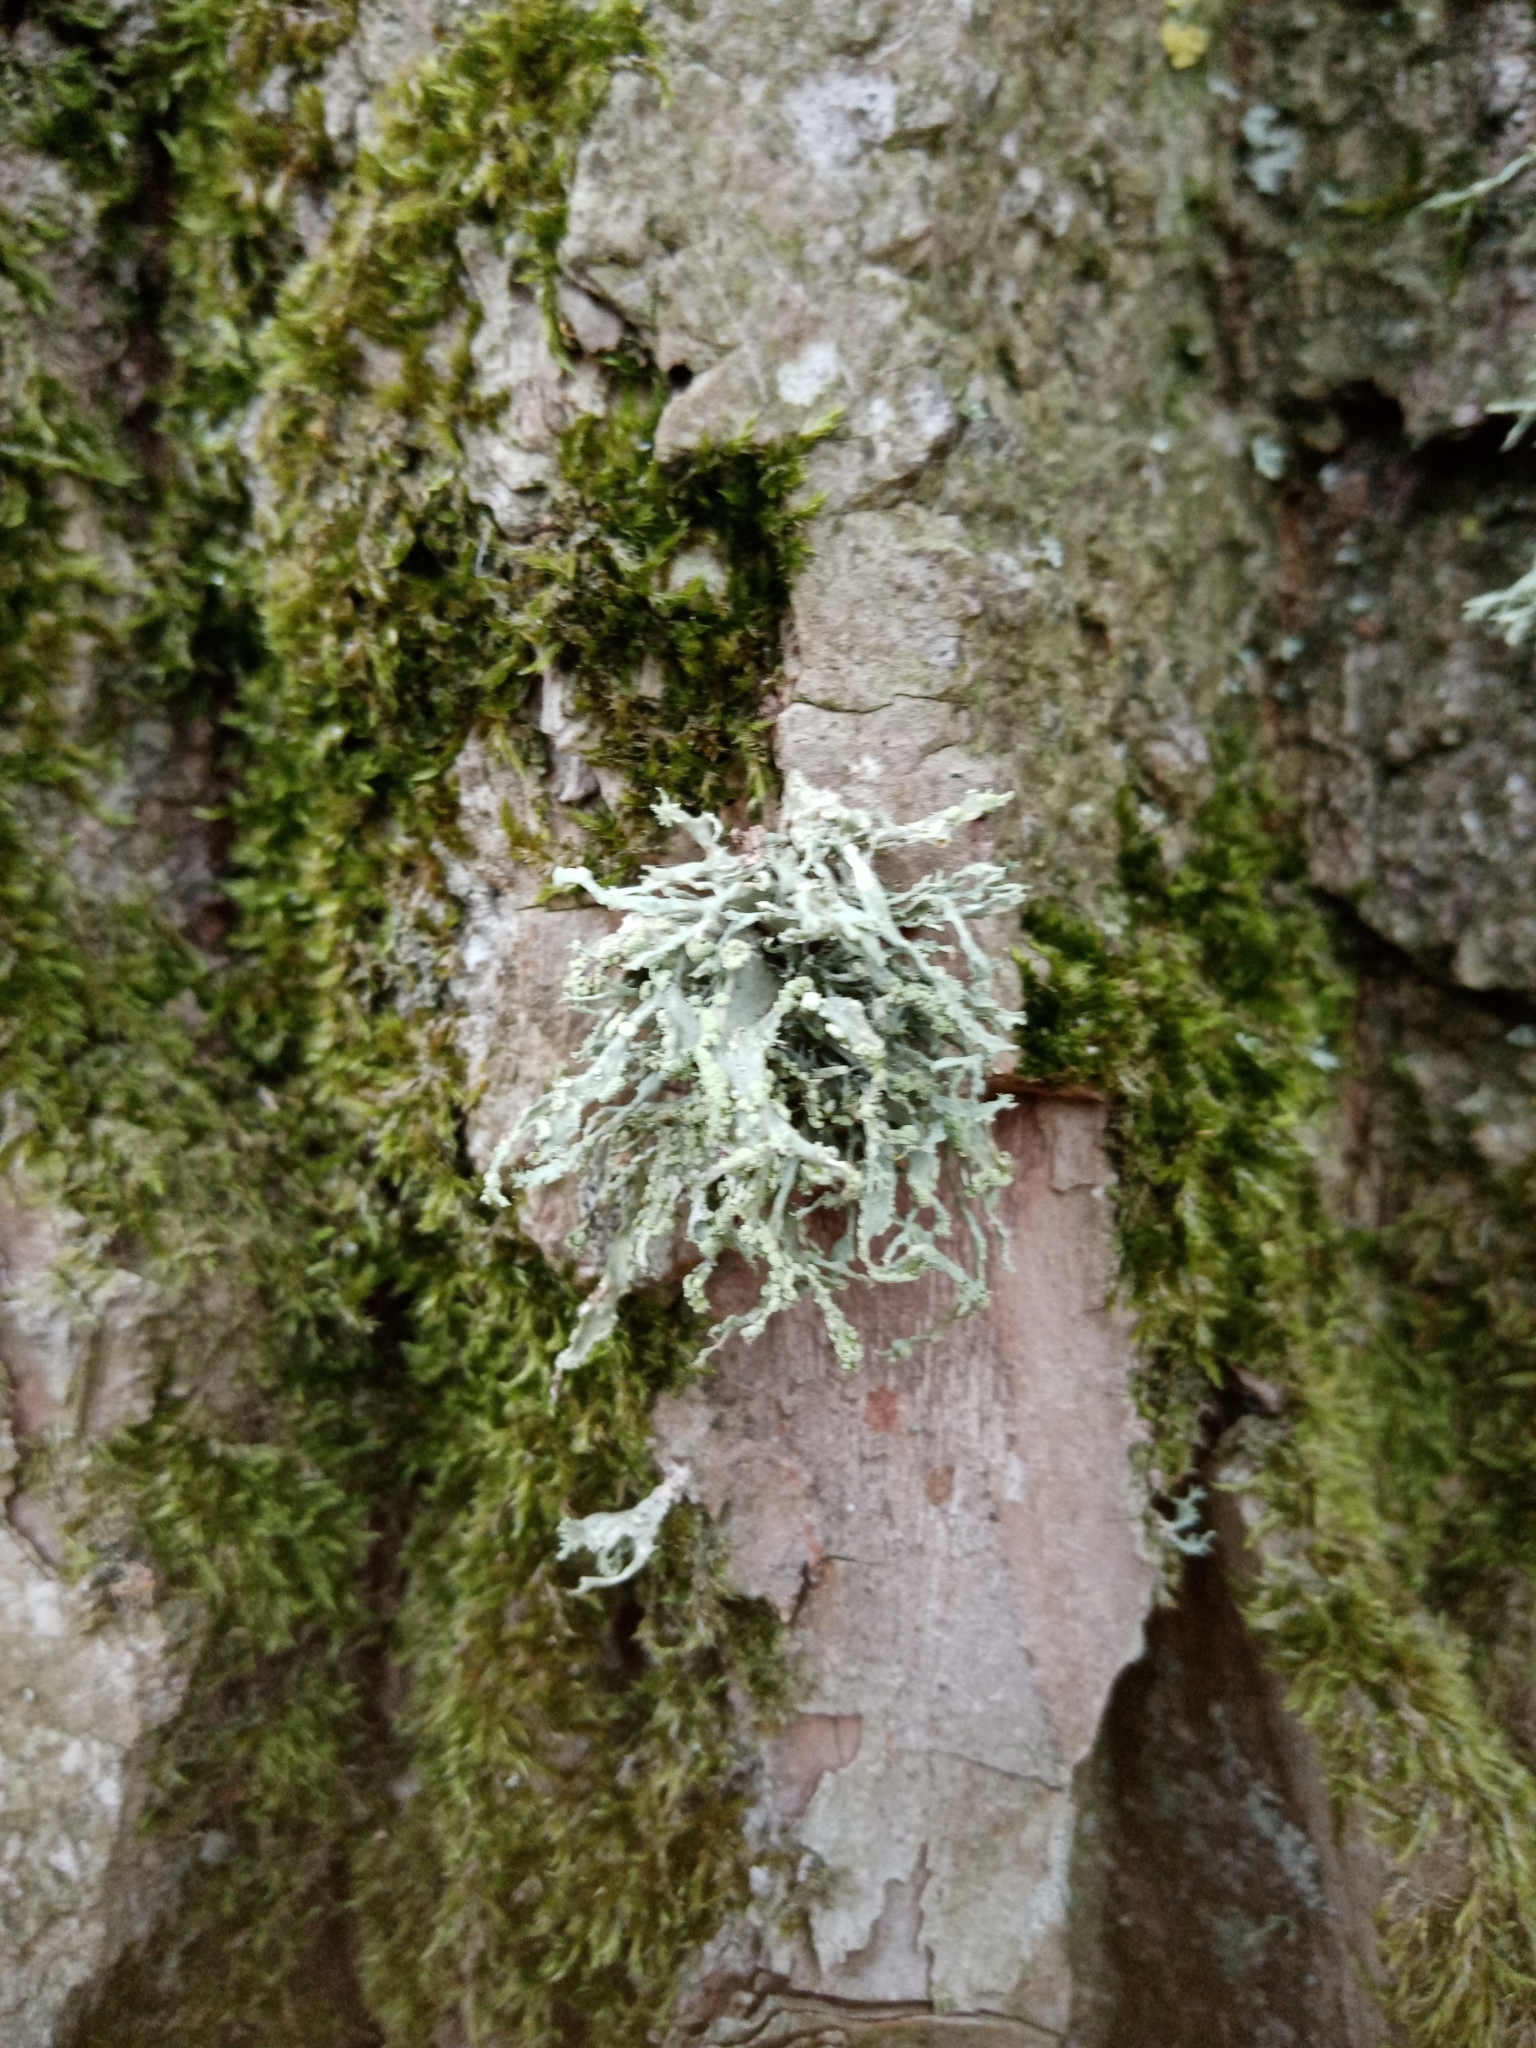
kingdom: Fungi
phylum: Ascomycota
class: Lecanoromycetes
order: Lecanorales
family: Parmeliaceae
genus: Evernia
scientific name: Evernia prunastri
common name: Oak moss
